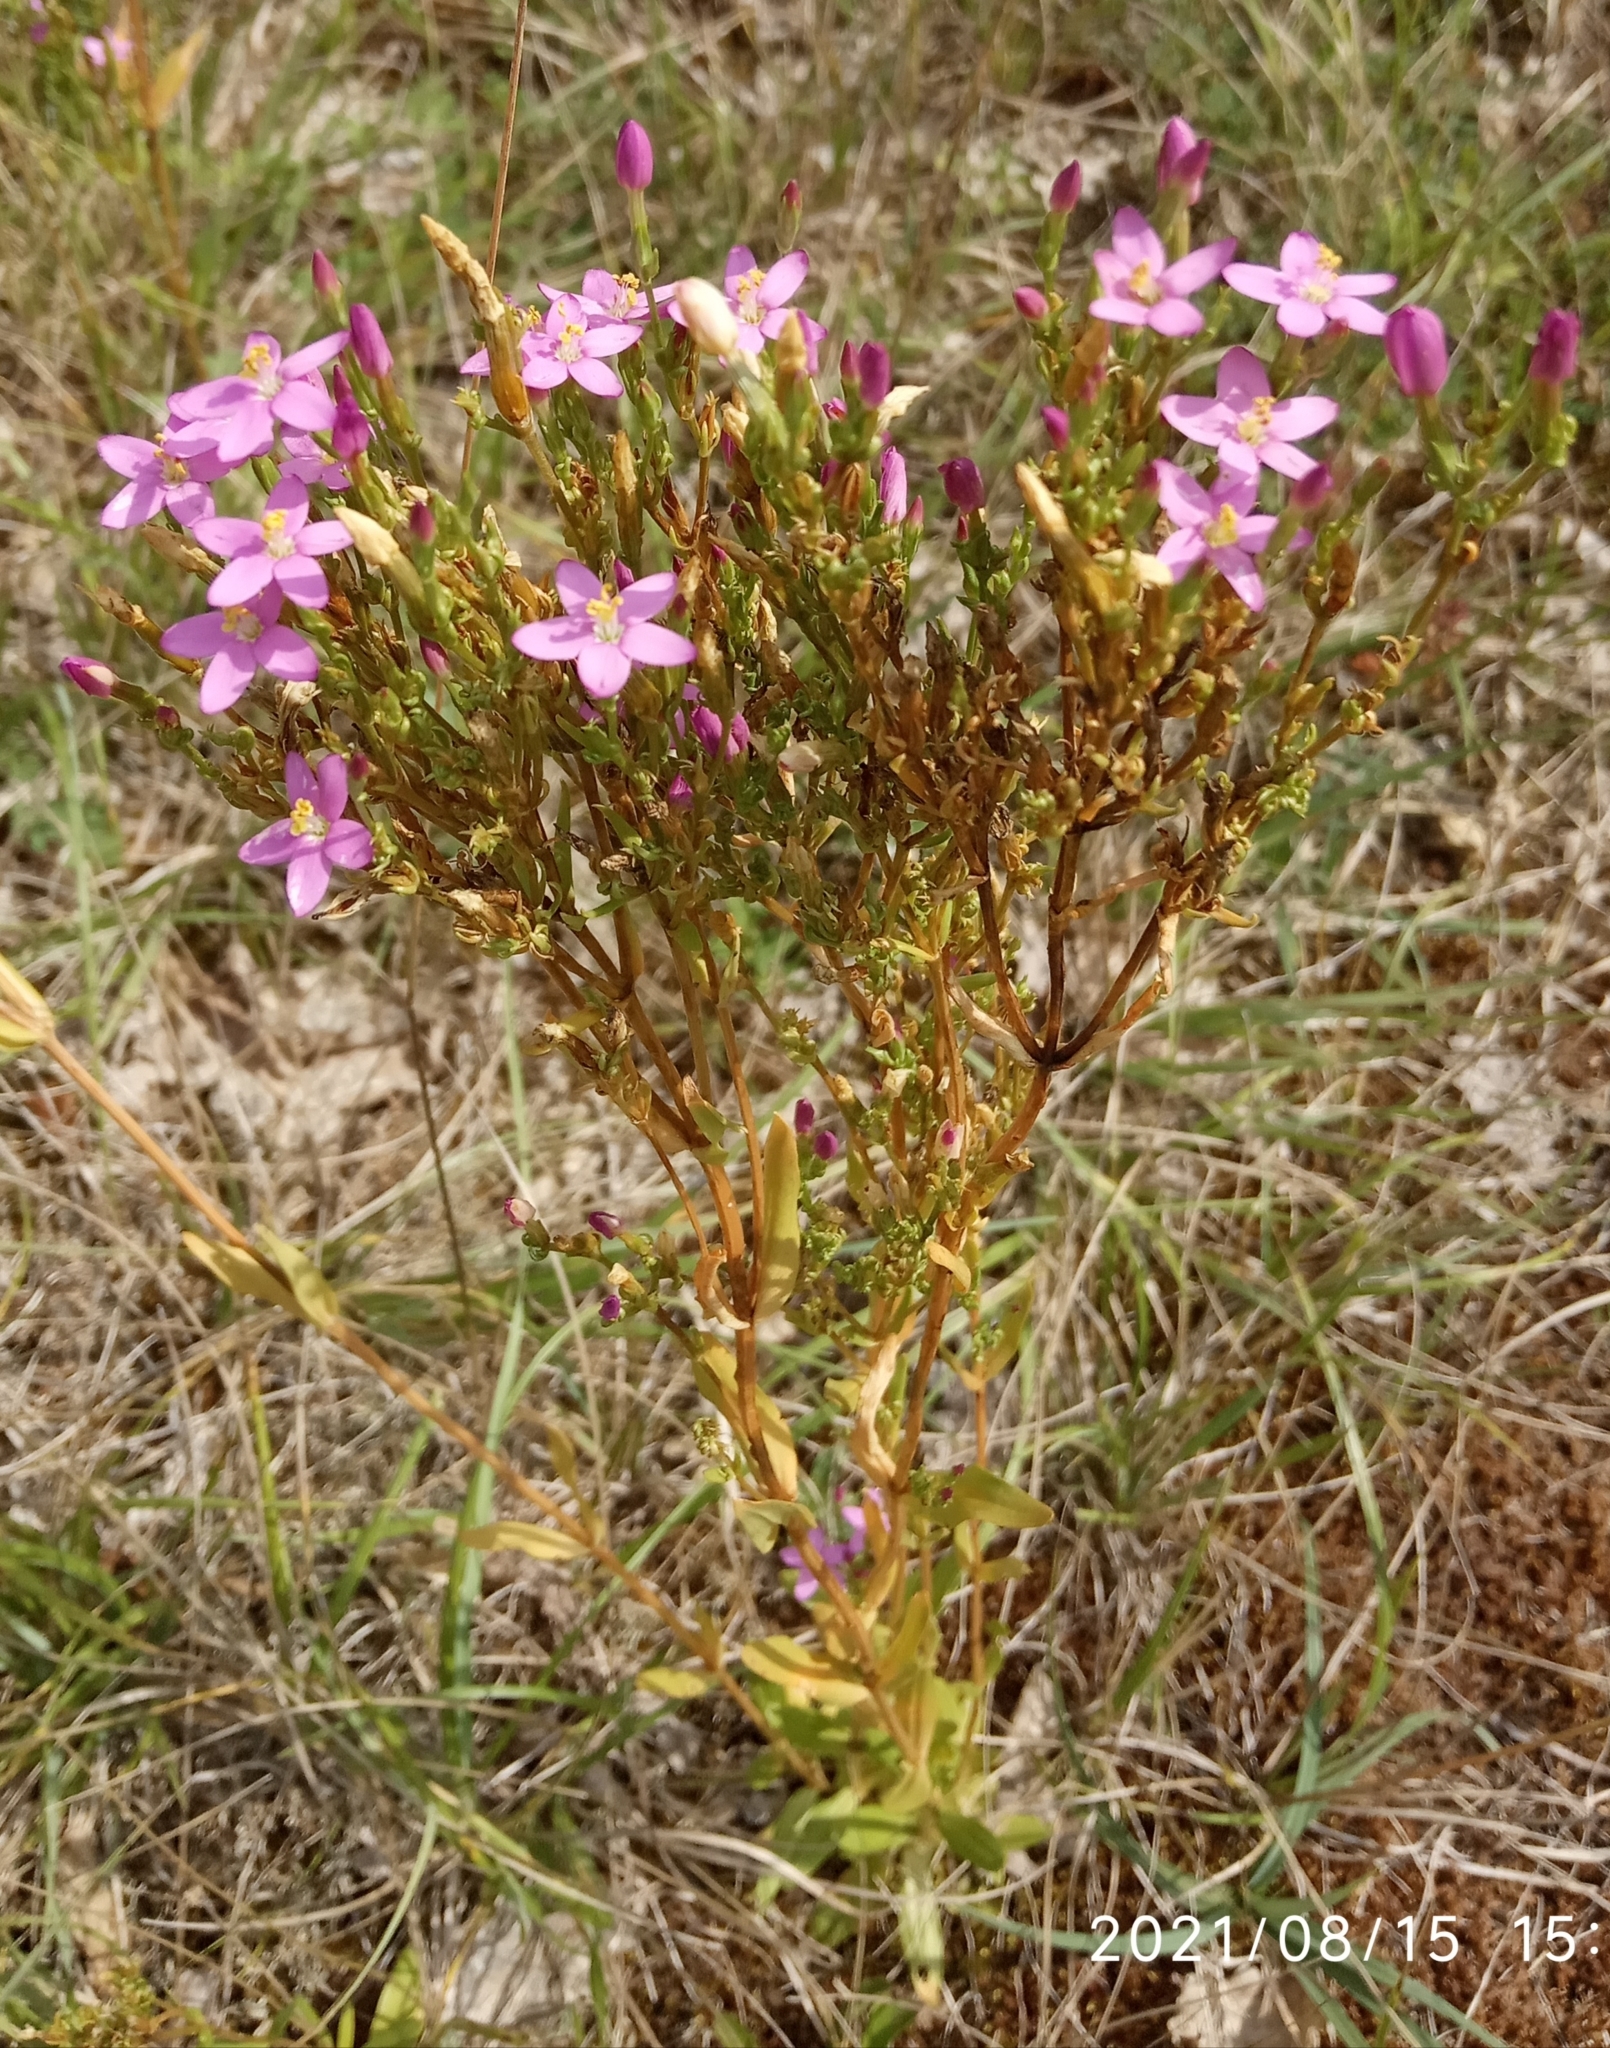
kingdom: Plantae
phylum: Tracheophyta
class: Magnoliopsida
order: Gentianales
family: Gentianaceae
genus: Centaurium
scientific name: Centaurium erythraea
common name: Common centaury
